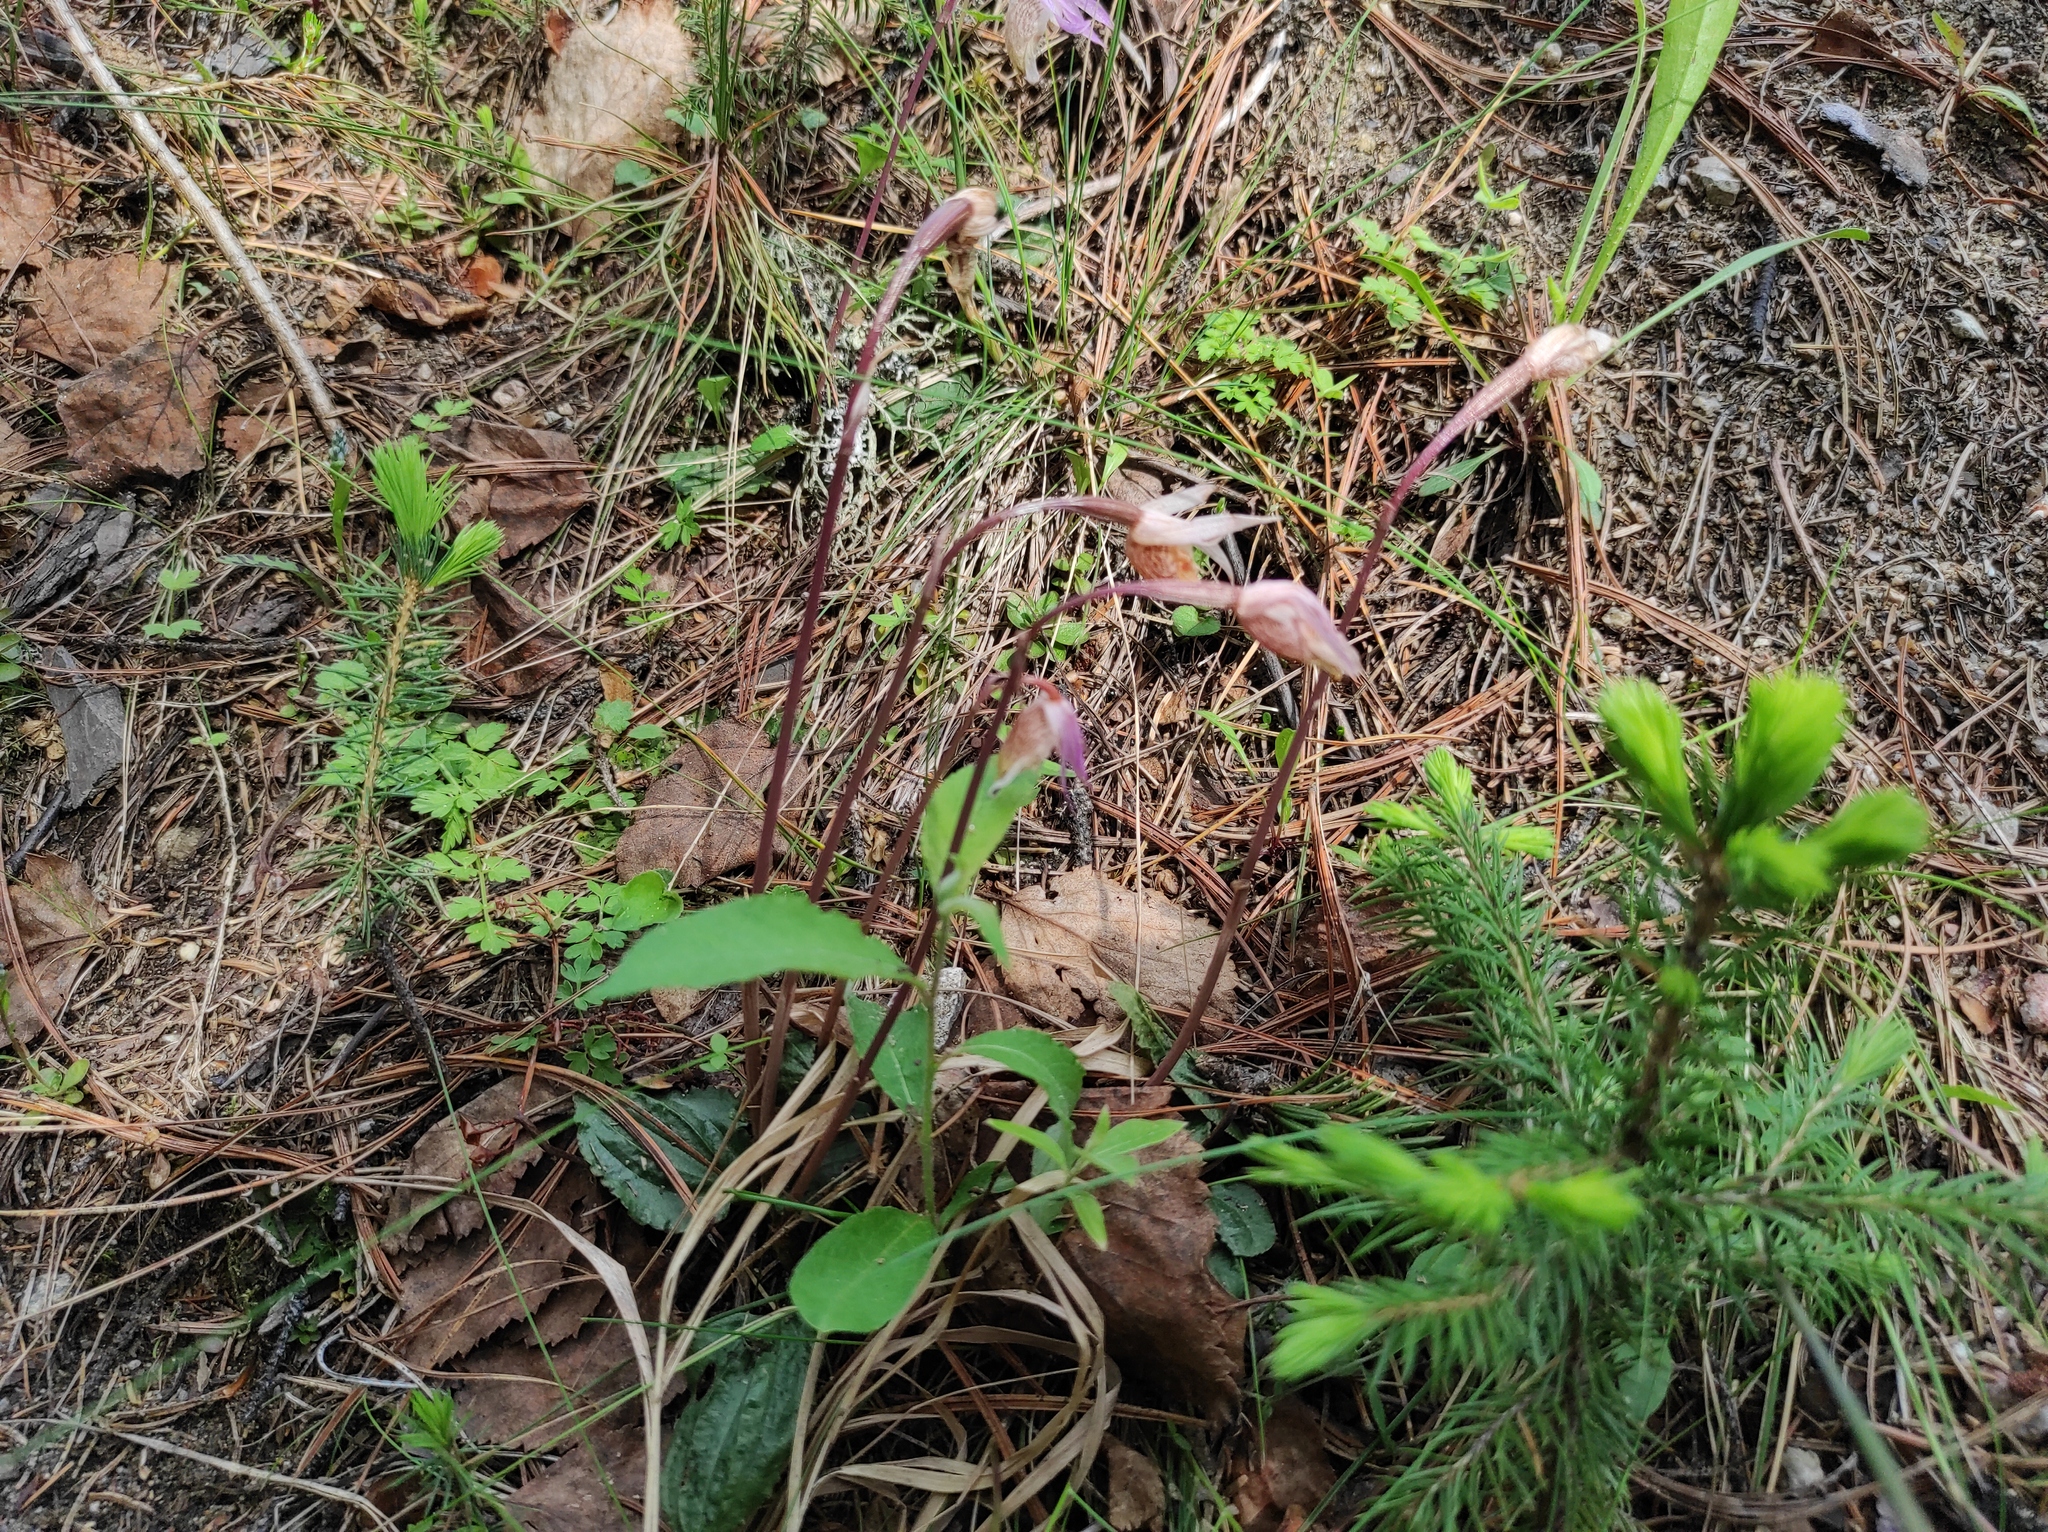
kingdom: Plantae
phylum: Tracheophyta
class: Pinopsida
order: Pinales
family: Pinaceae
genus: Picea
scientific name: Picea obovata
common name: Siberian spruce
